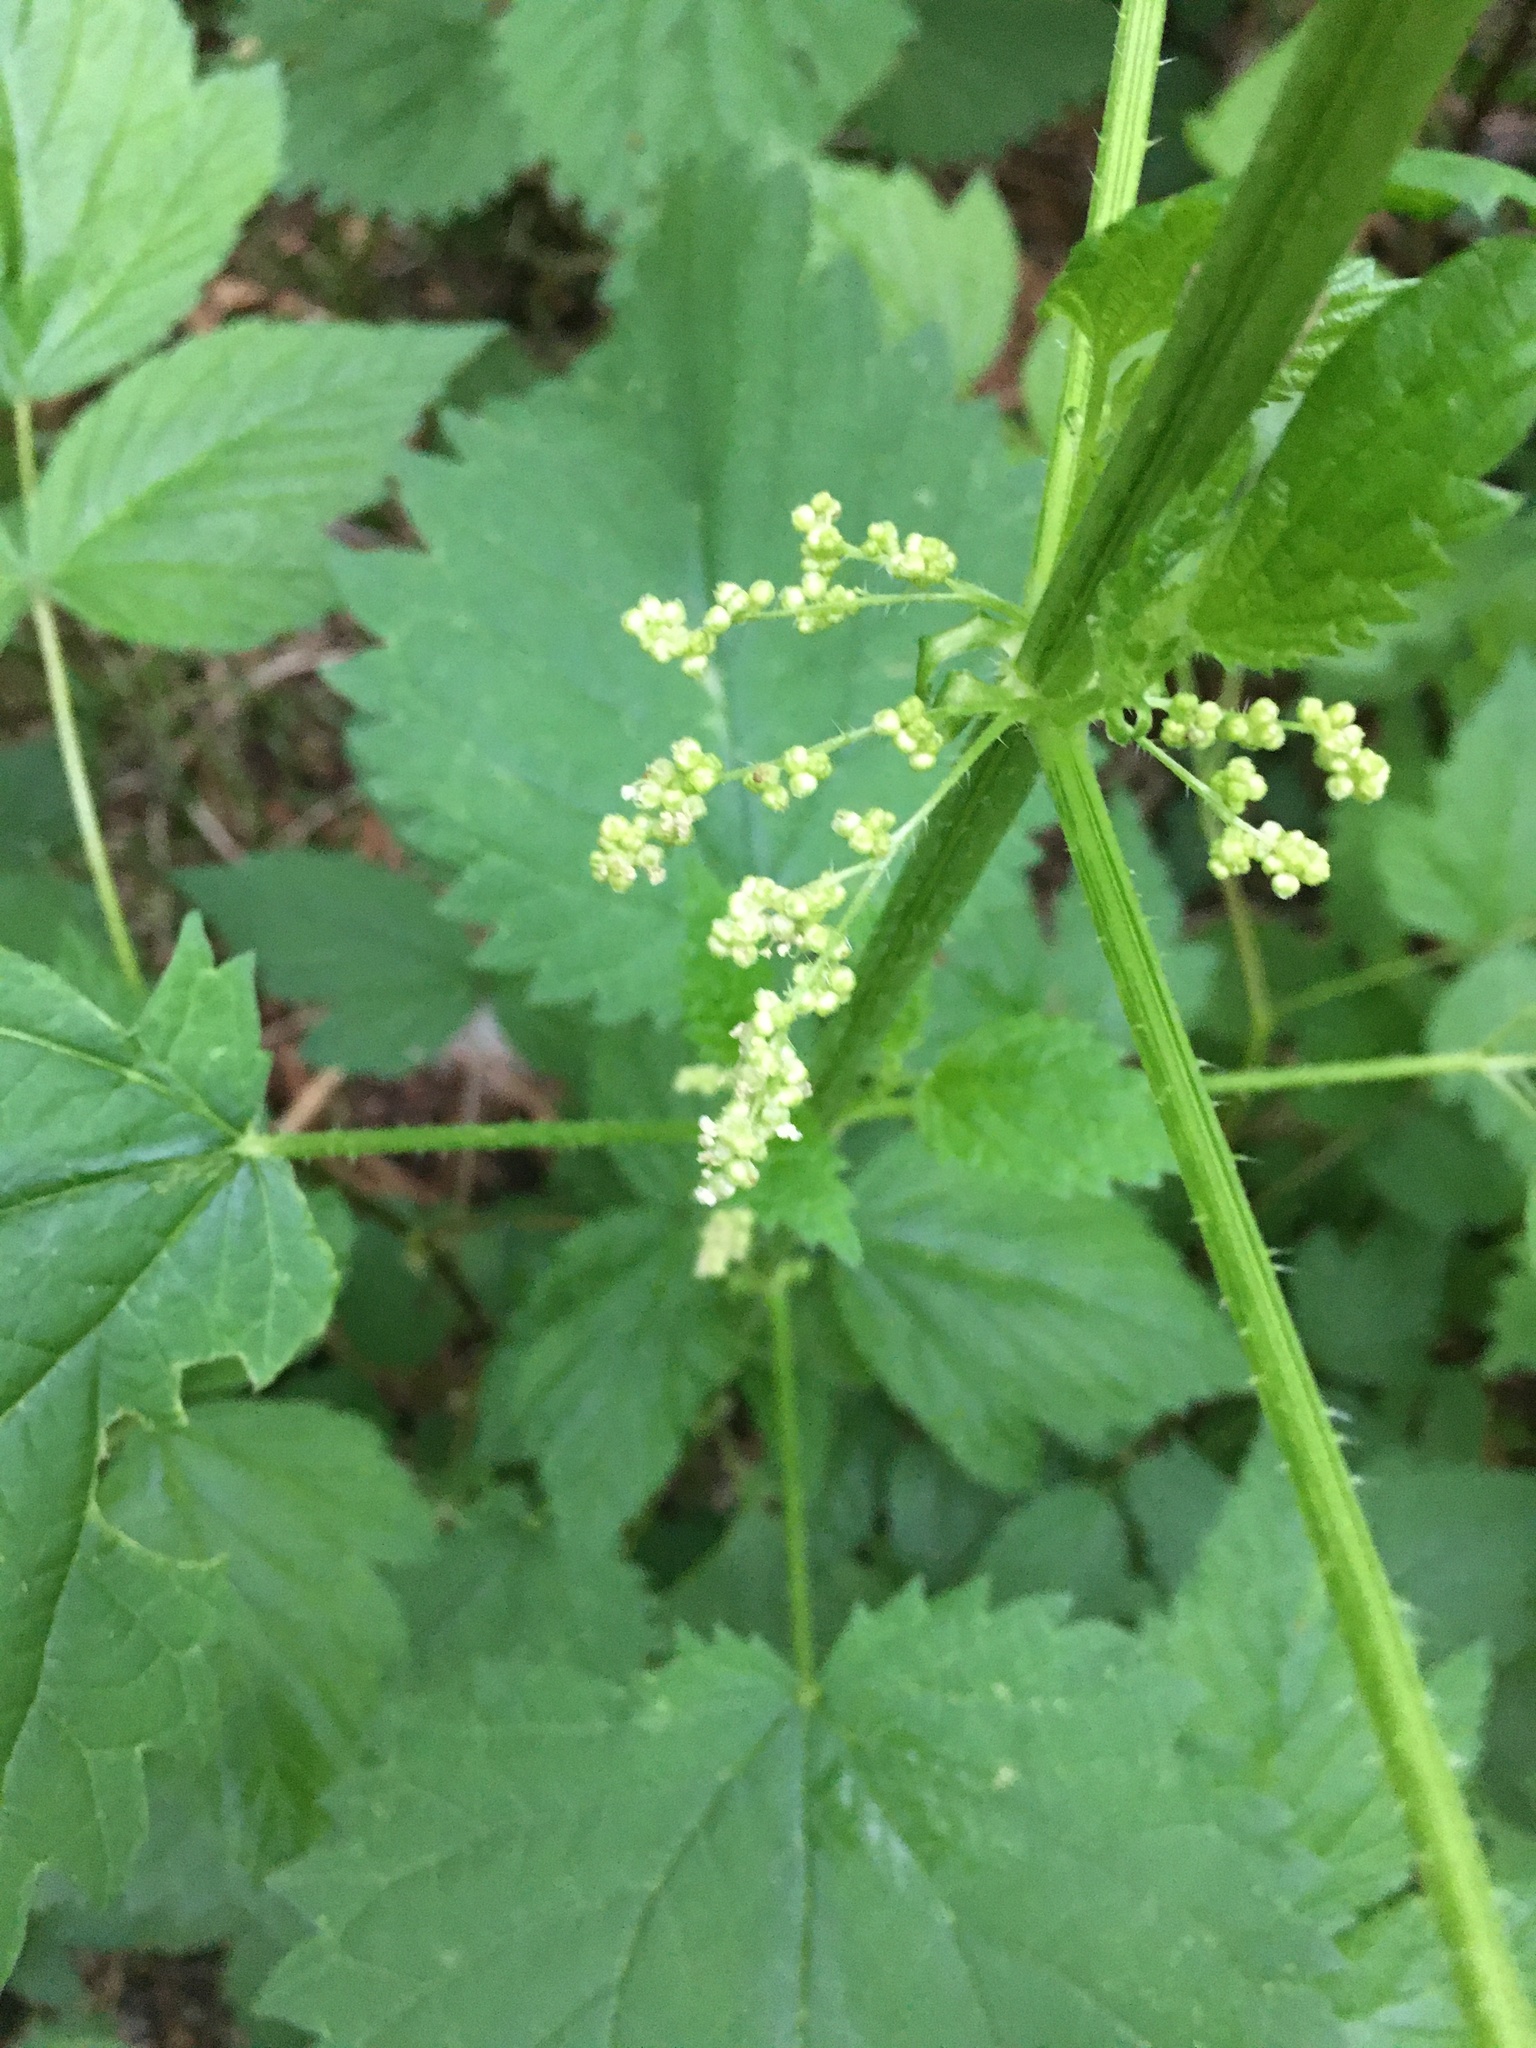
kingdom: Plantae
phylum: Tracheophyta
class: Magnoliopsida
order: Rosales
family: Urticaceae
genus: Urtica
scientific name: Urtica dioica
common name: Common nettle
